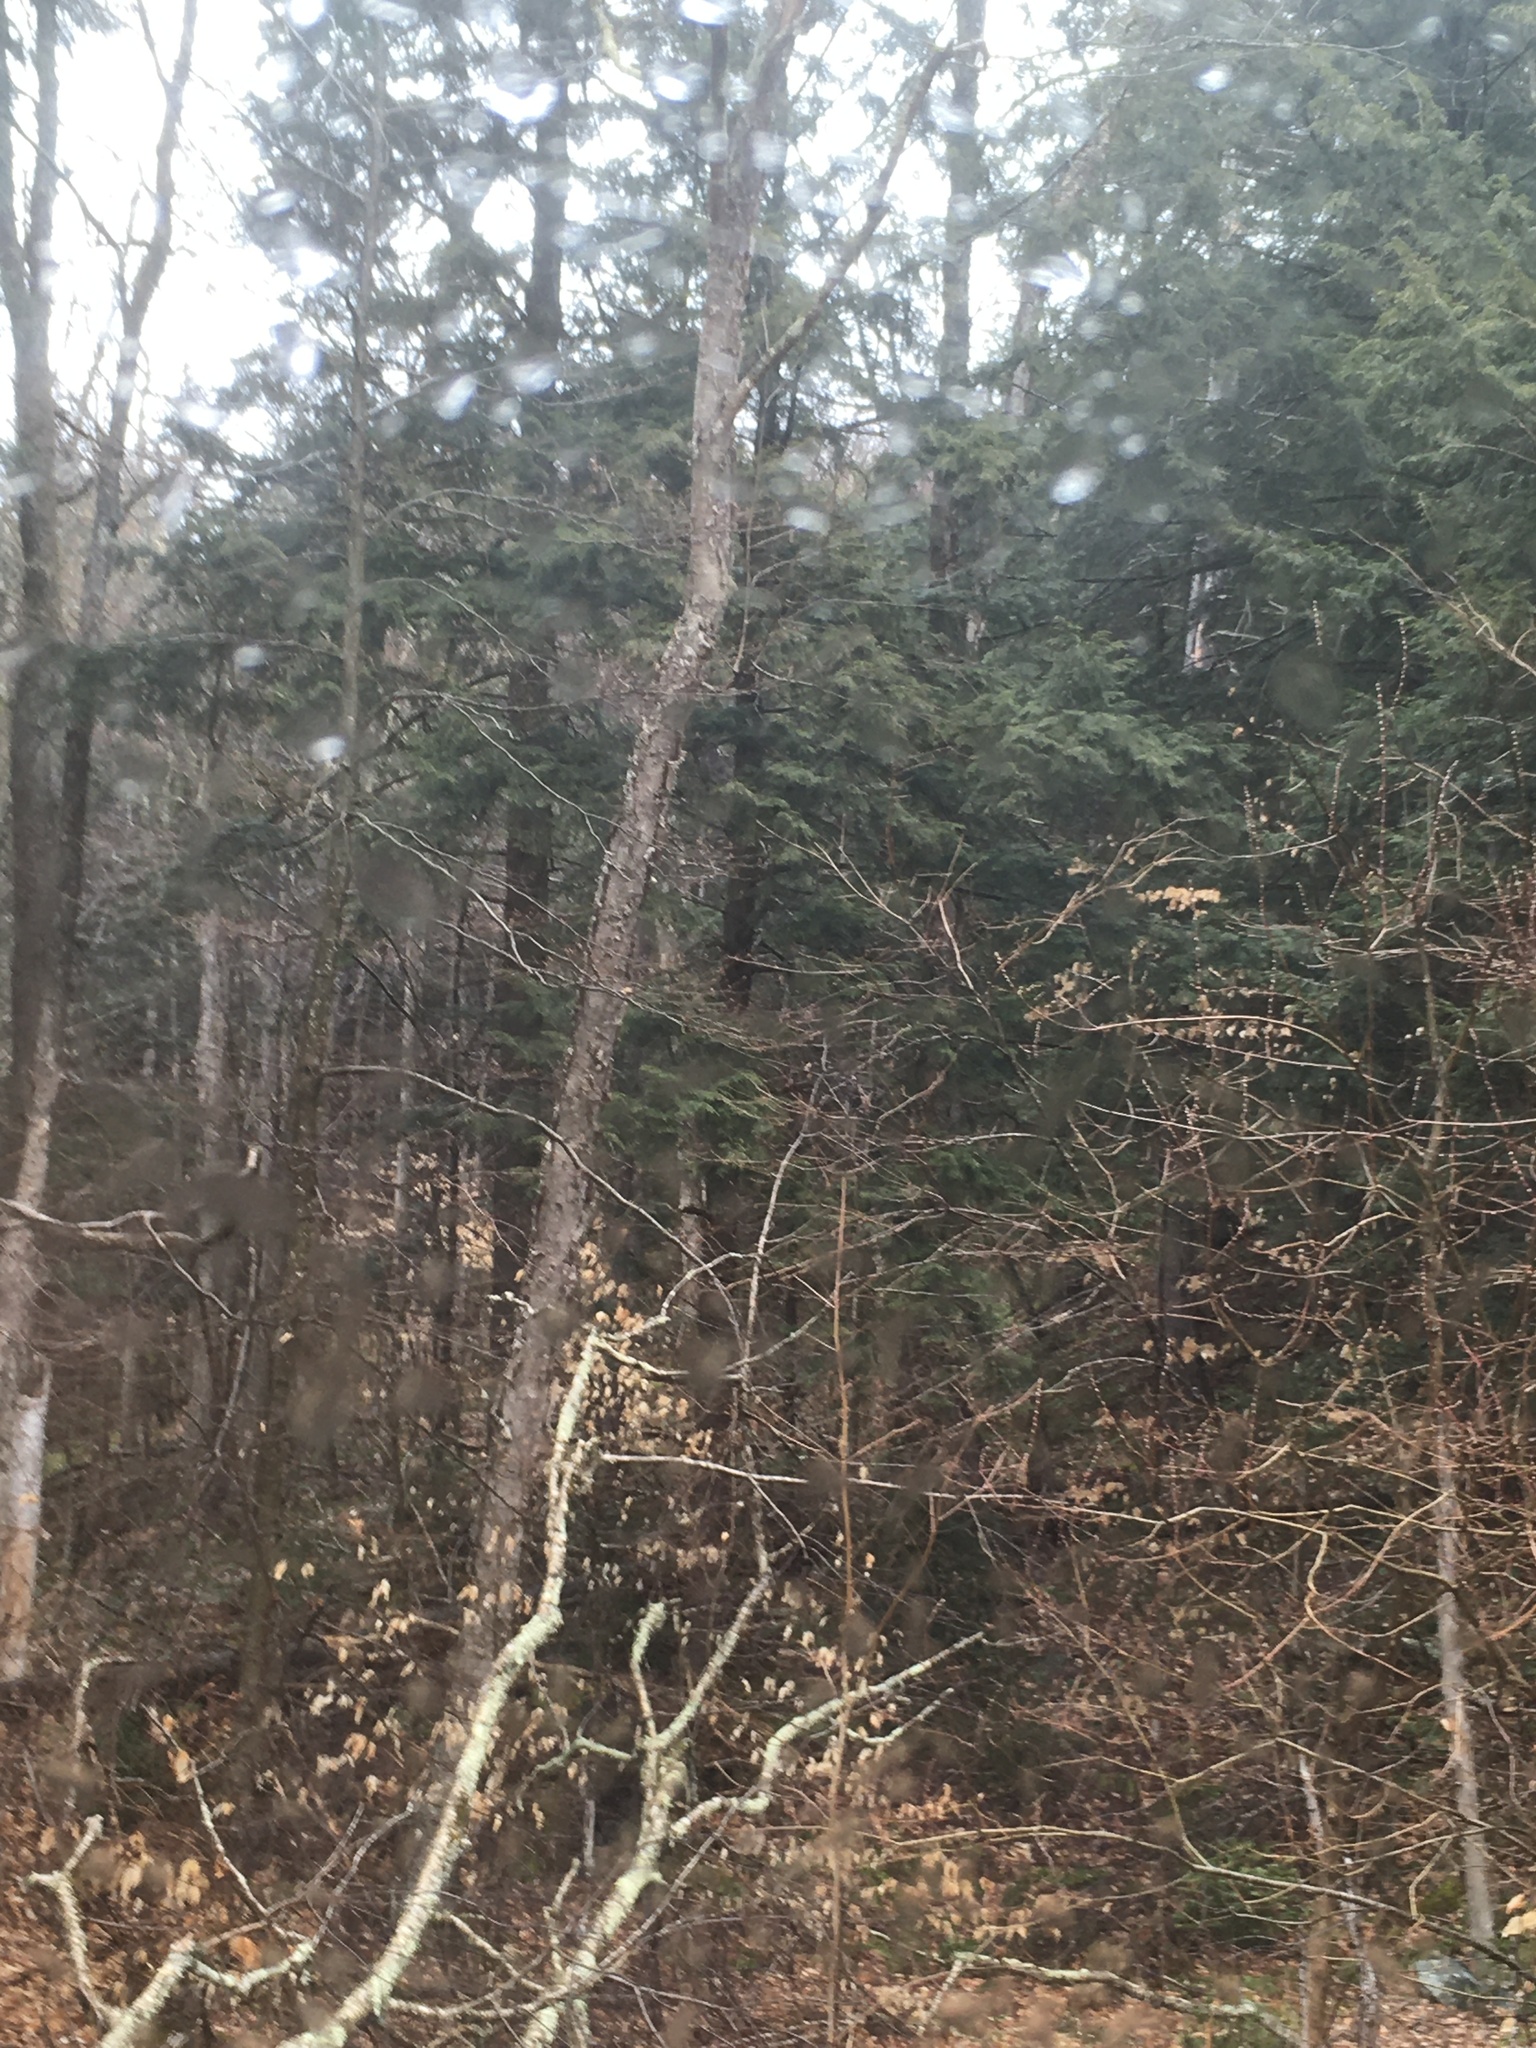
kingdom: Plantae
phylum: Tracheophyta
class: Magnoliopsida
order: Fagales
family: Betulaceae
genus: Betula
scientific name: Betula alleghaniensis
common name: Yellow birch
